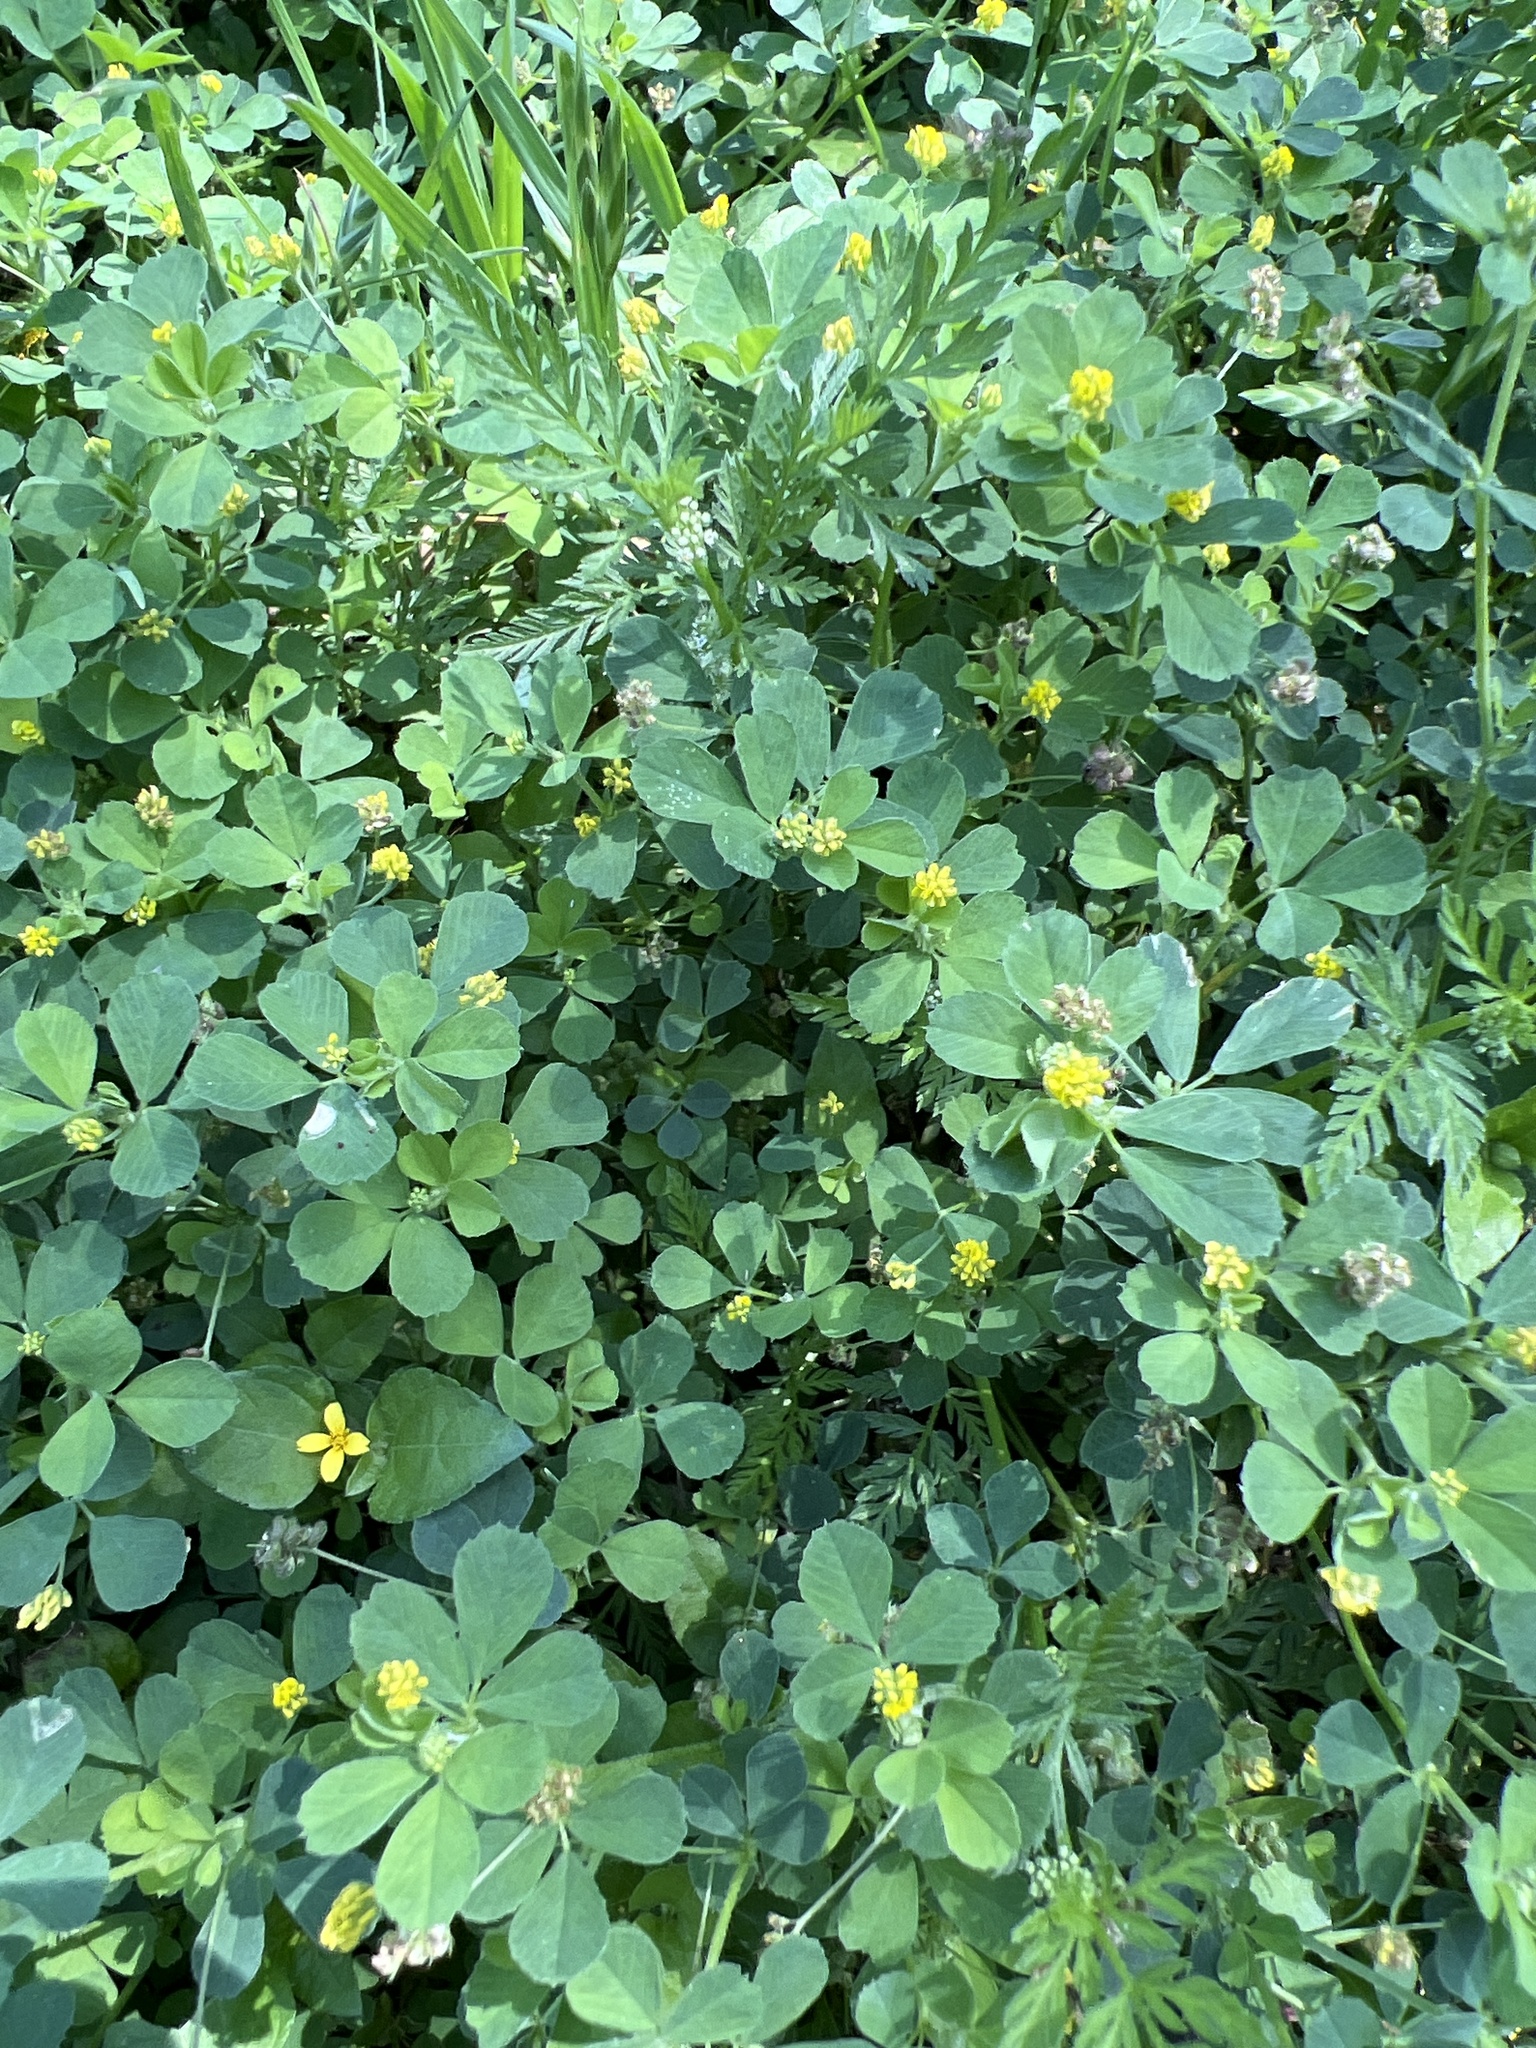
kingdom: Plantae
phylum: Tracheophyta
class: Magnoliopsida
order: Fabales
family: Fabaceae
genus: Medicago
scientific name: Medicago lupulina
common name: Black medick
